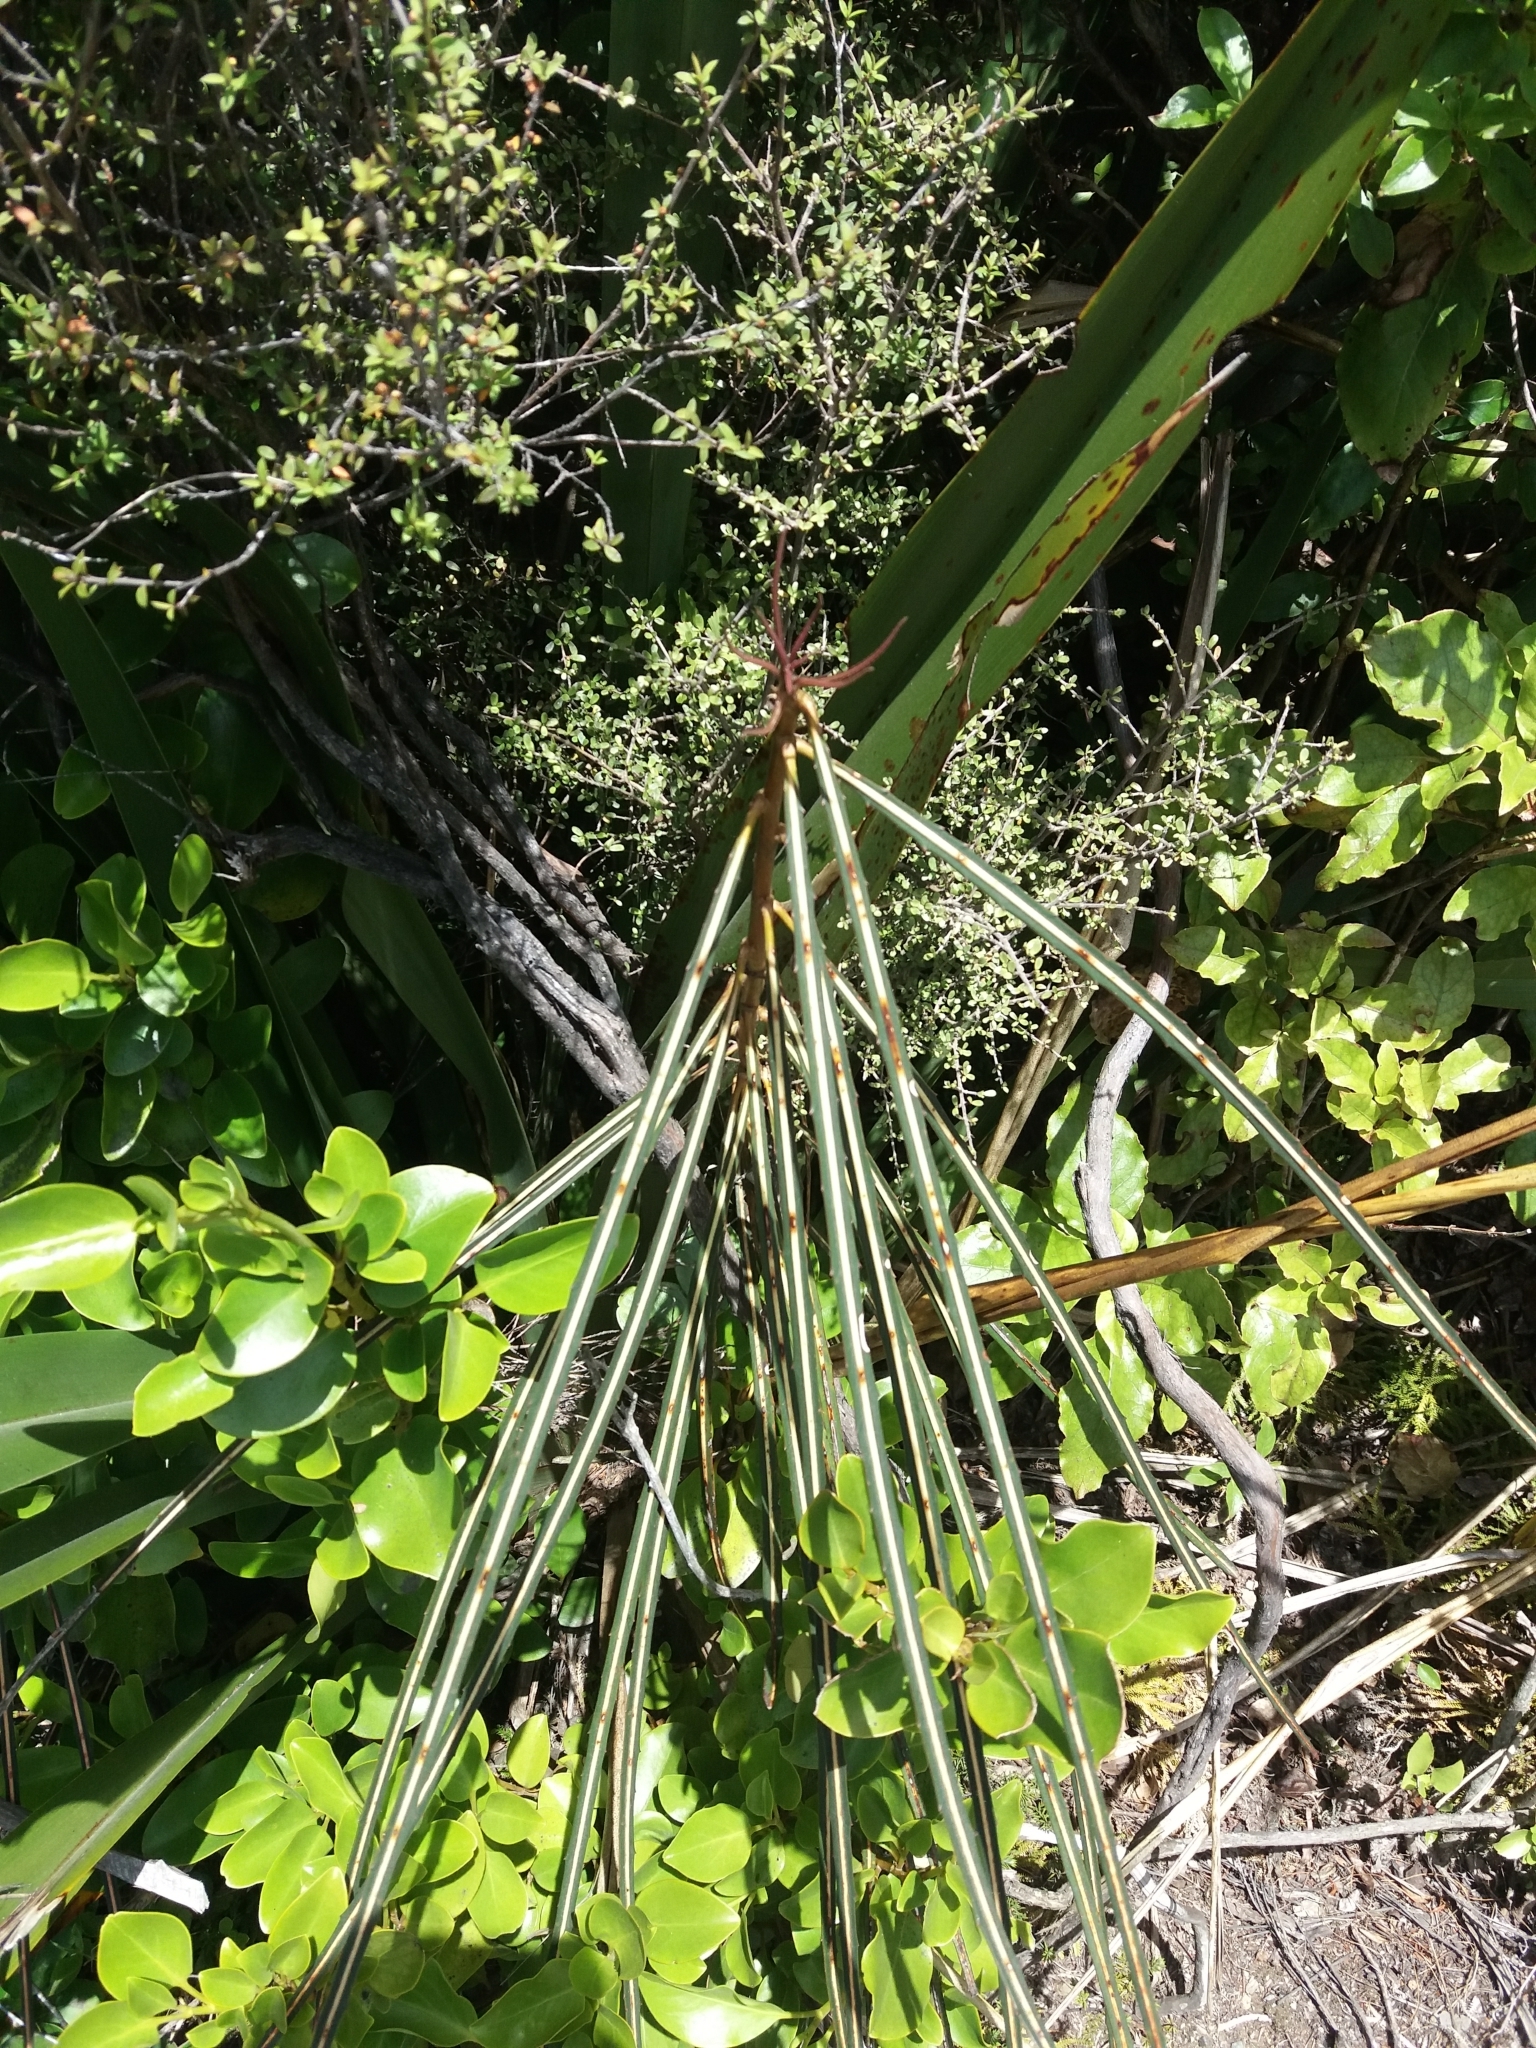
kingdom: Plantae
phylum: Tracheophyta
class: Magnoliopsida
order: Apiales
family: Araliaceae
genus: Pseudopanax
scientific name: Pseudopanax crassifolius
